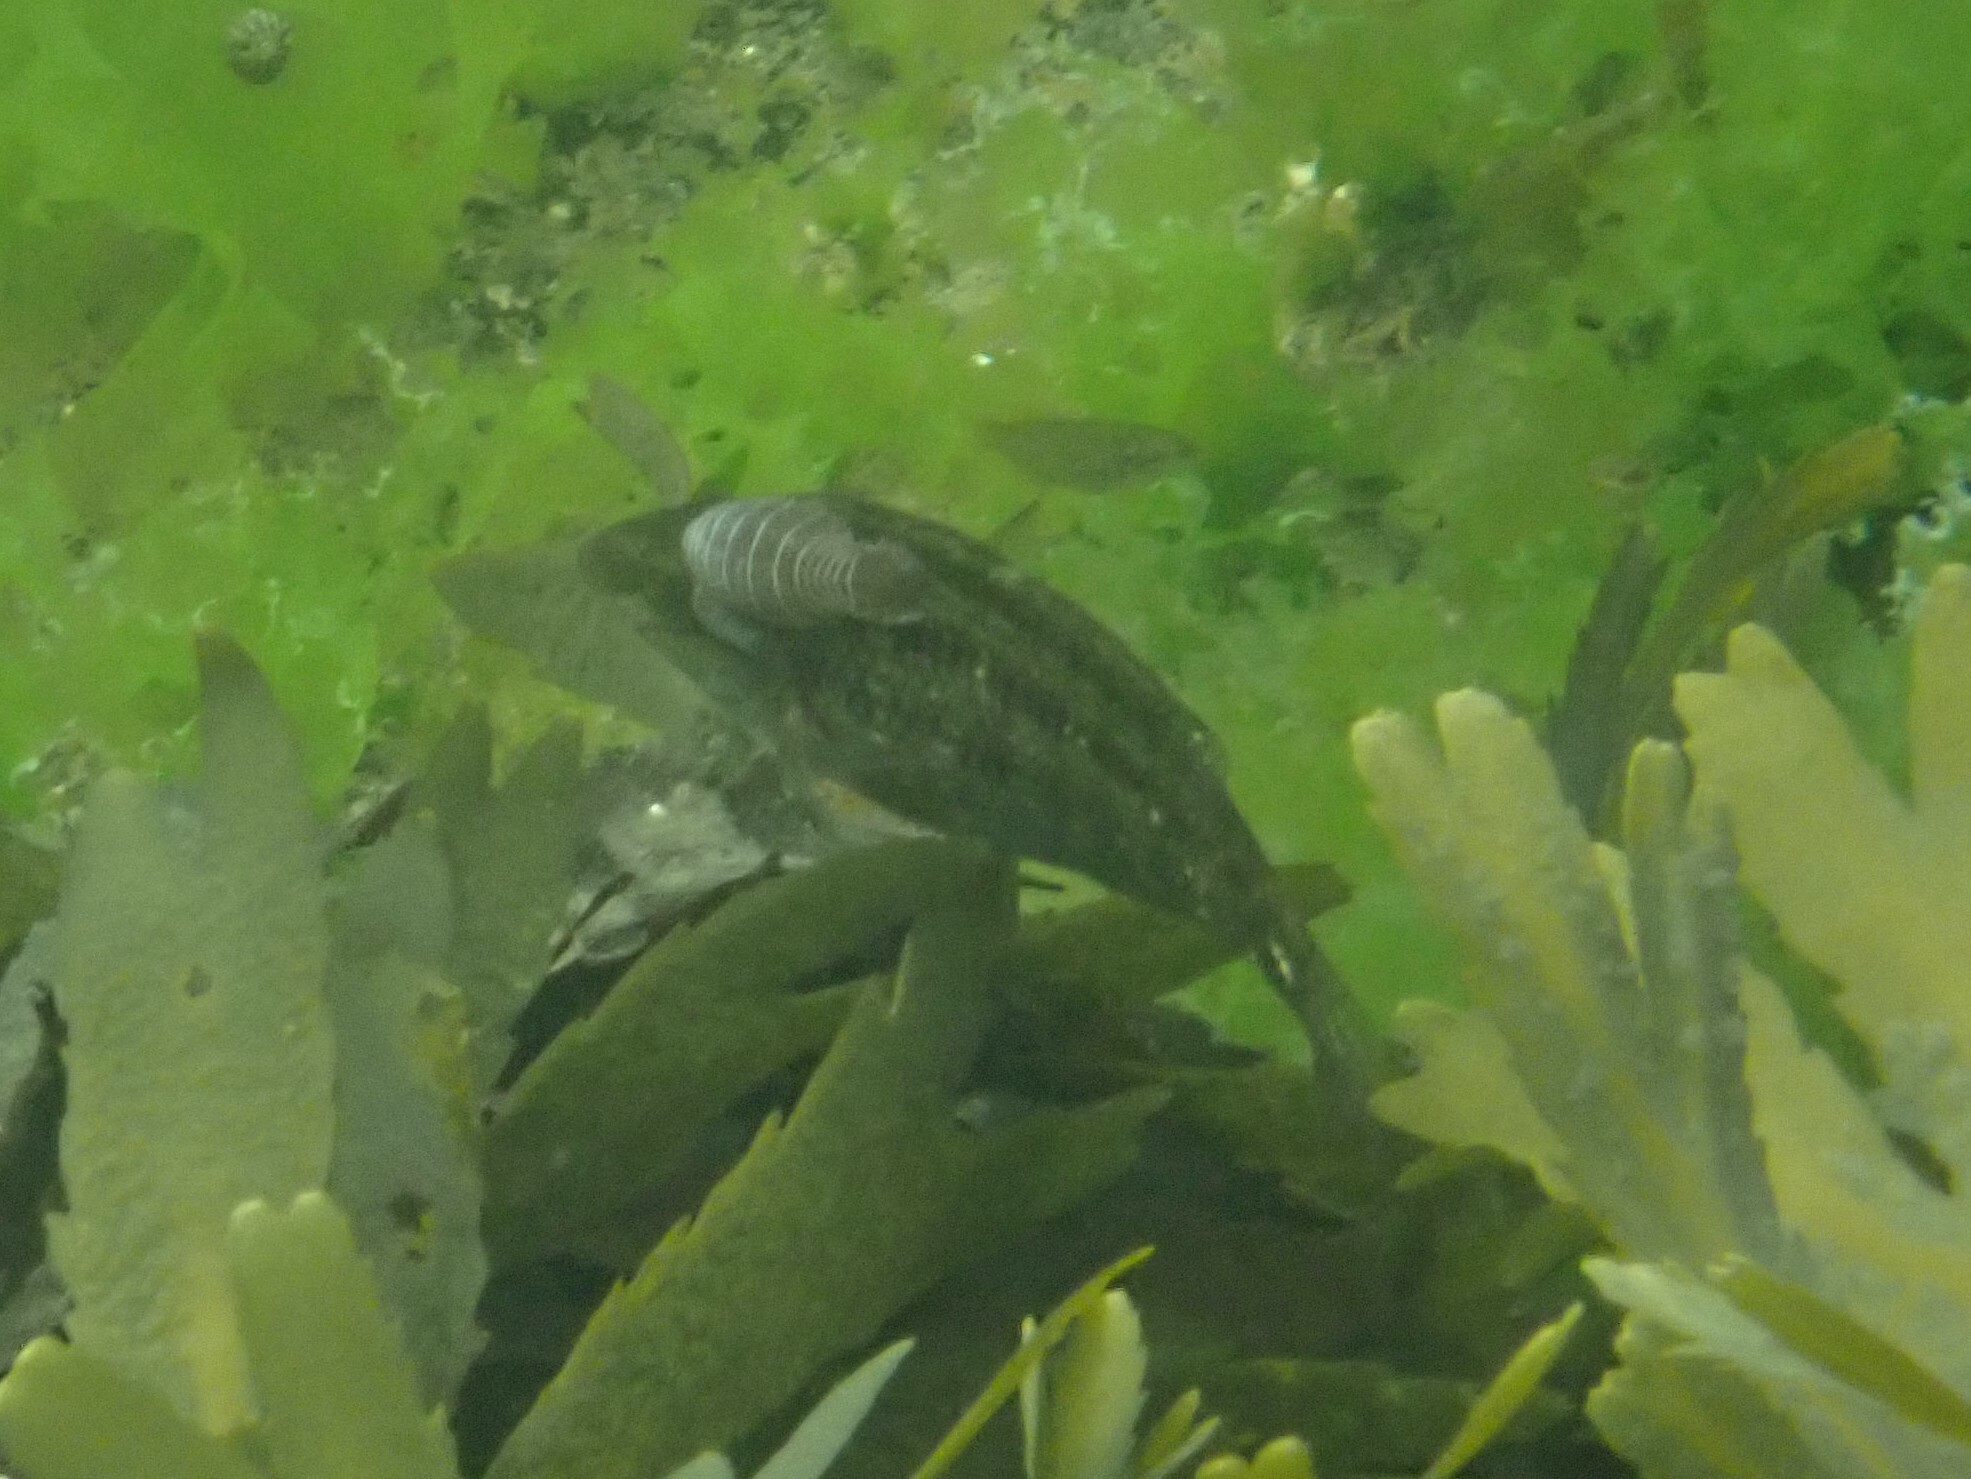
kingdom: Animalia
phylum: Chordata
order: Perciformes
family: Labridae
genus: Symphodus
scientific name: Symphodus melops
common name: Corkwing
